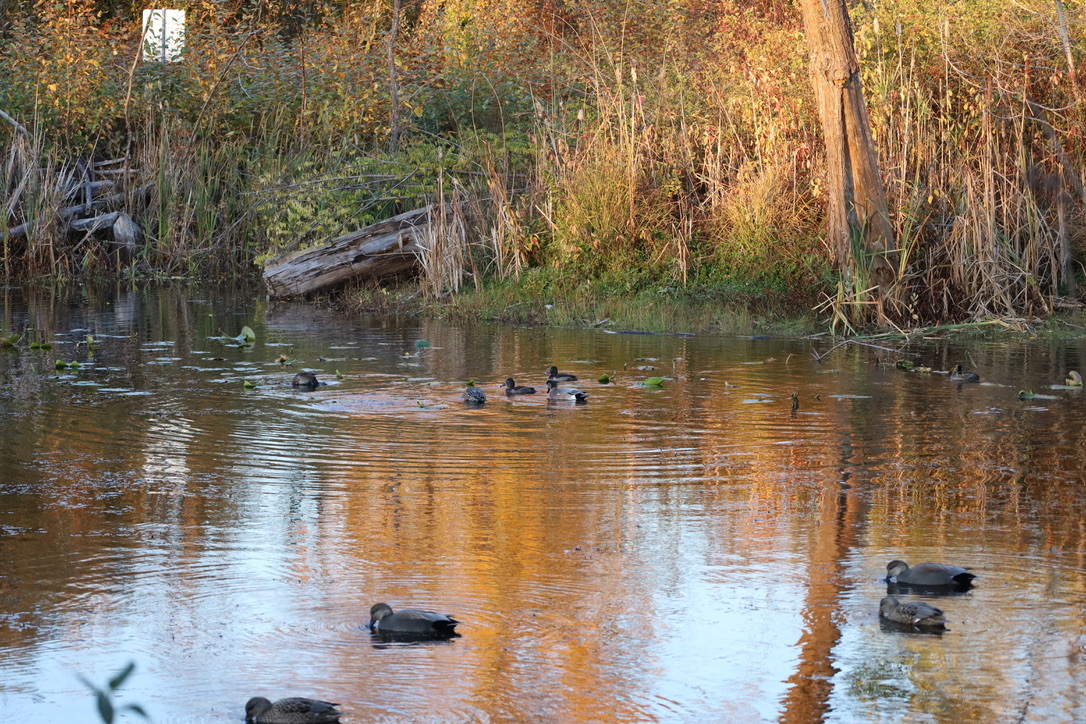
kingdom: Animalia
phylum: Chordata
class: Aves
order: Anseriformes
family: Anatidae
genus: Aythya
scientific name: Aythya collaris
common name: Ring-necked duck
